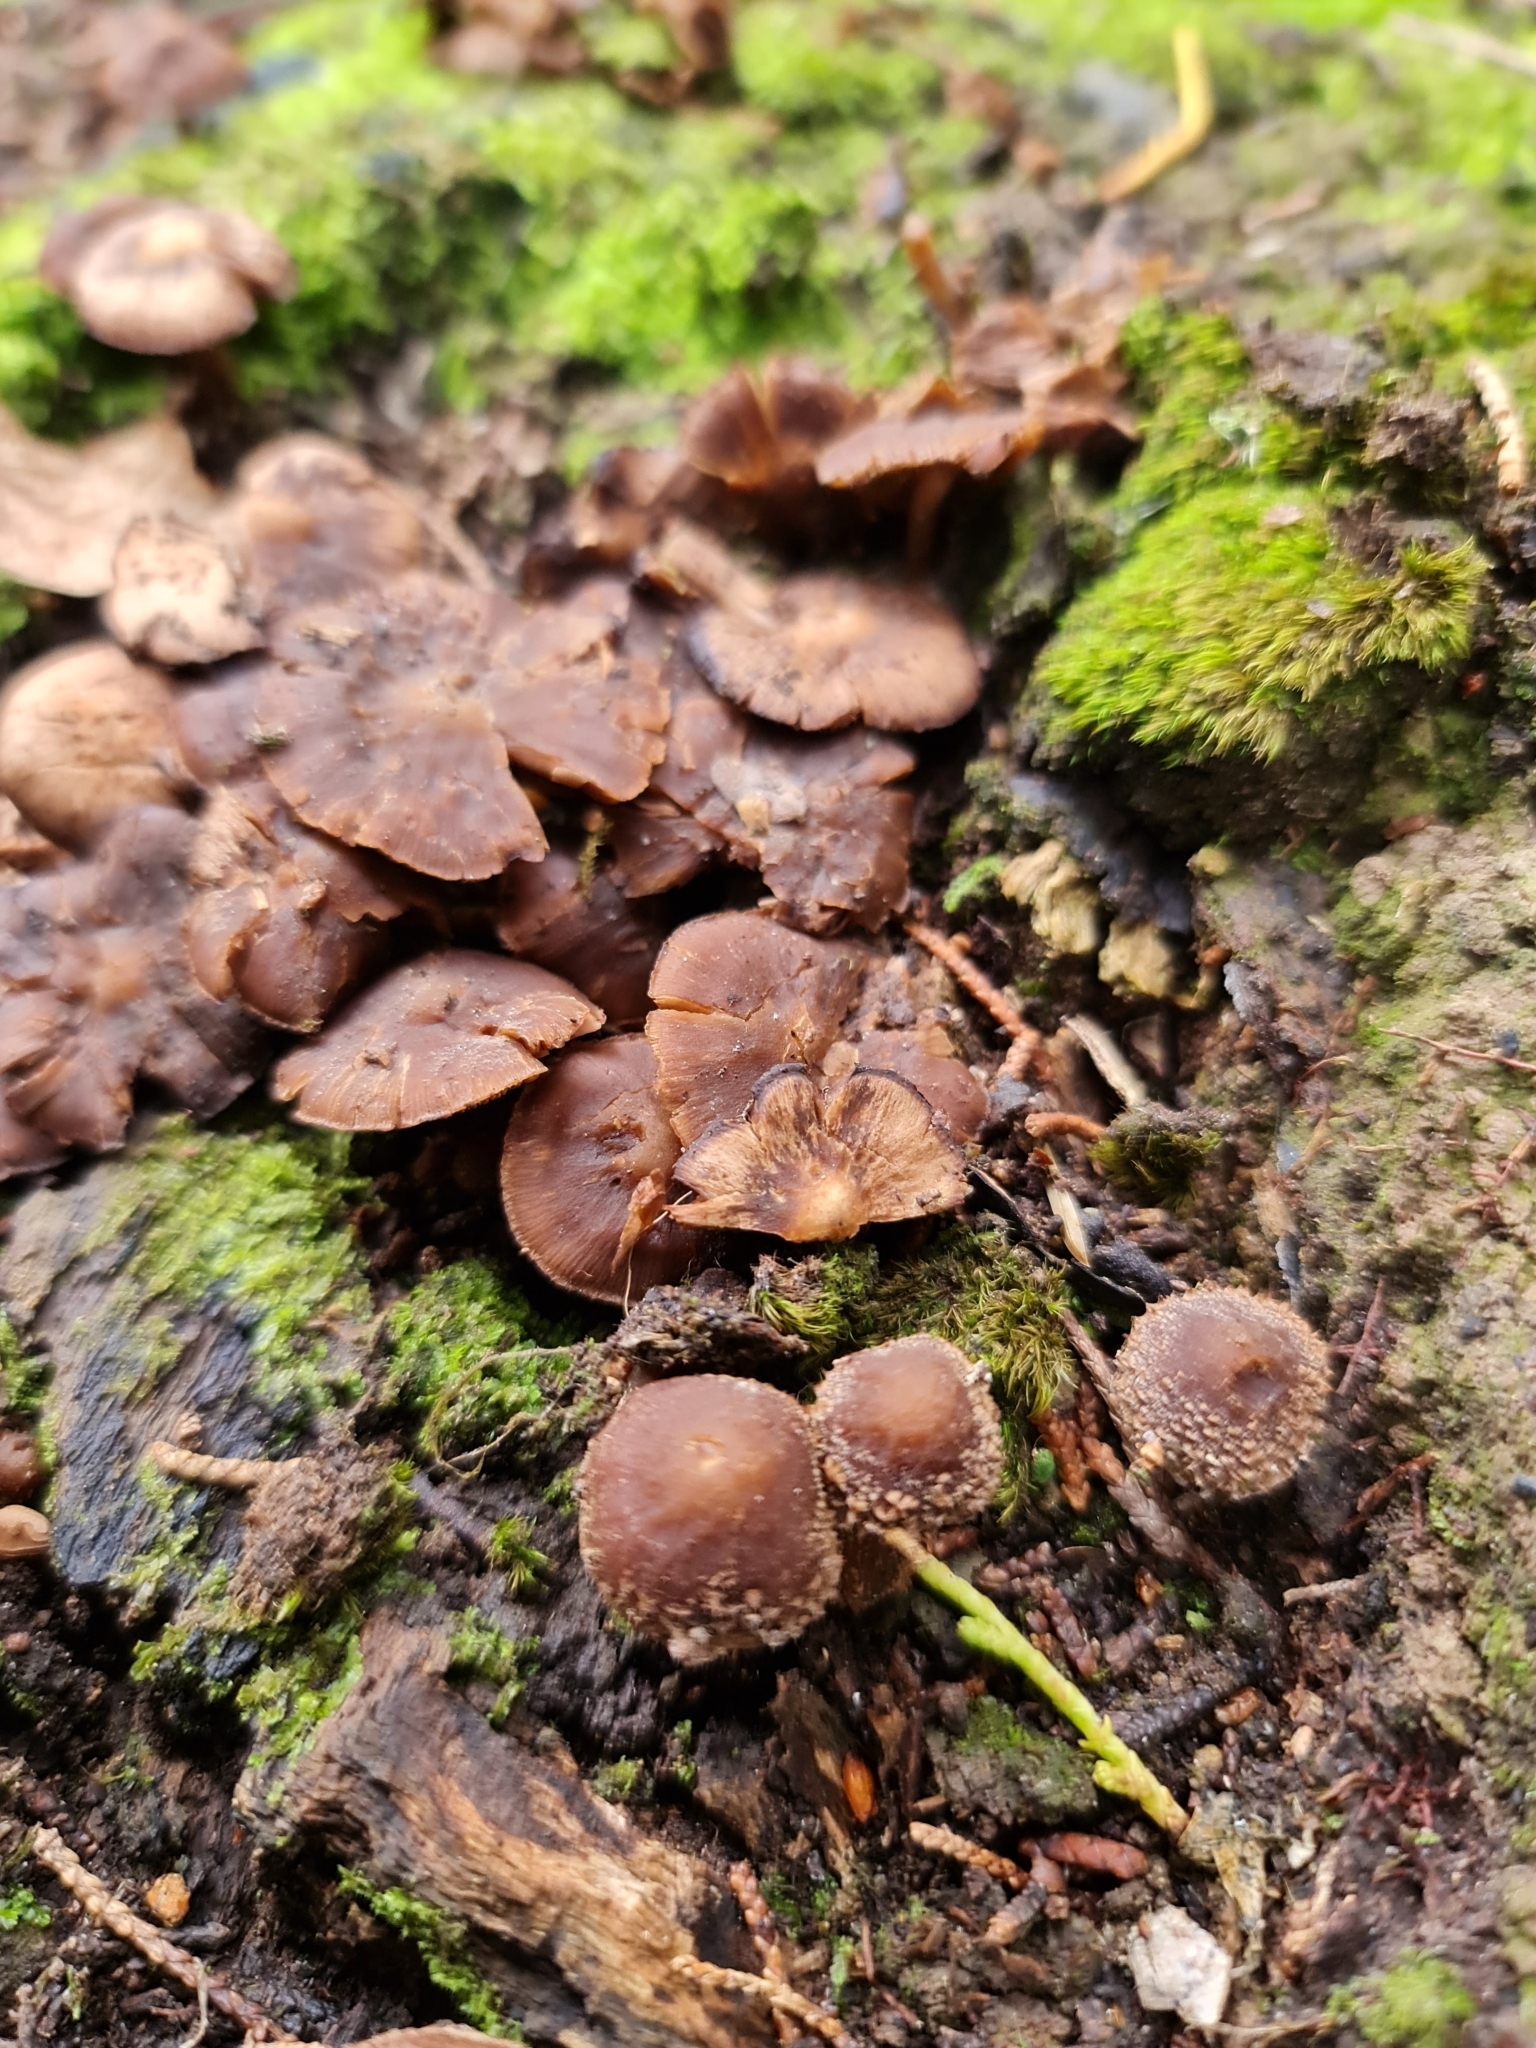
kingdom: Fungi
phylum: Basidiomycota
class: Agaricomycetes
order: Agaricales
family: Psathyrellaceae
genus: Psathyrella
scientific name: Psathyrella echinata
